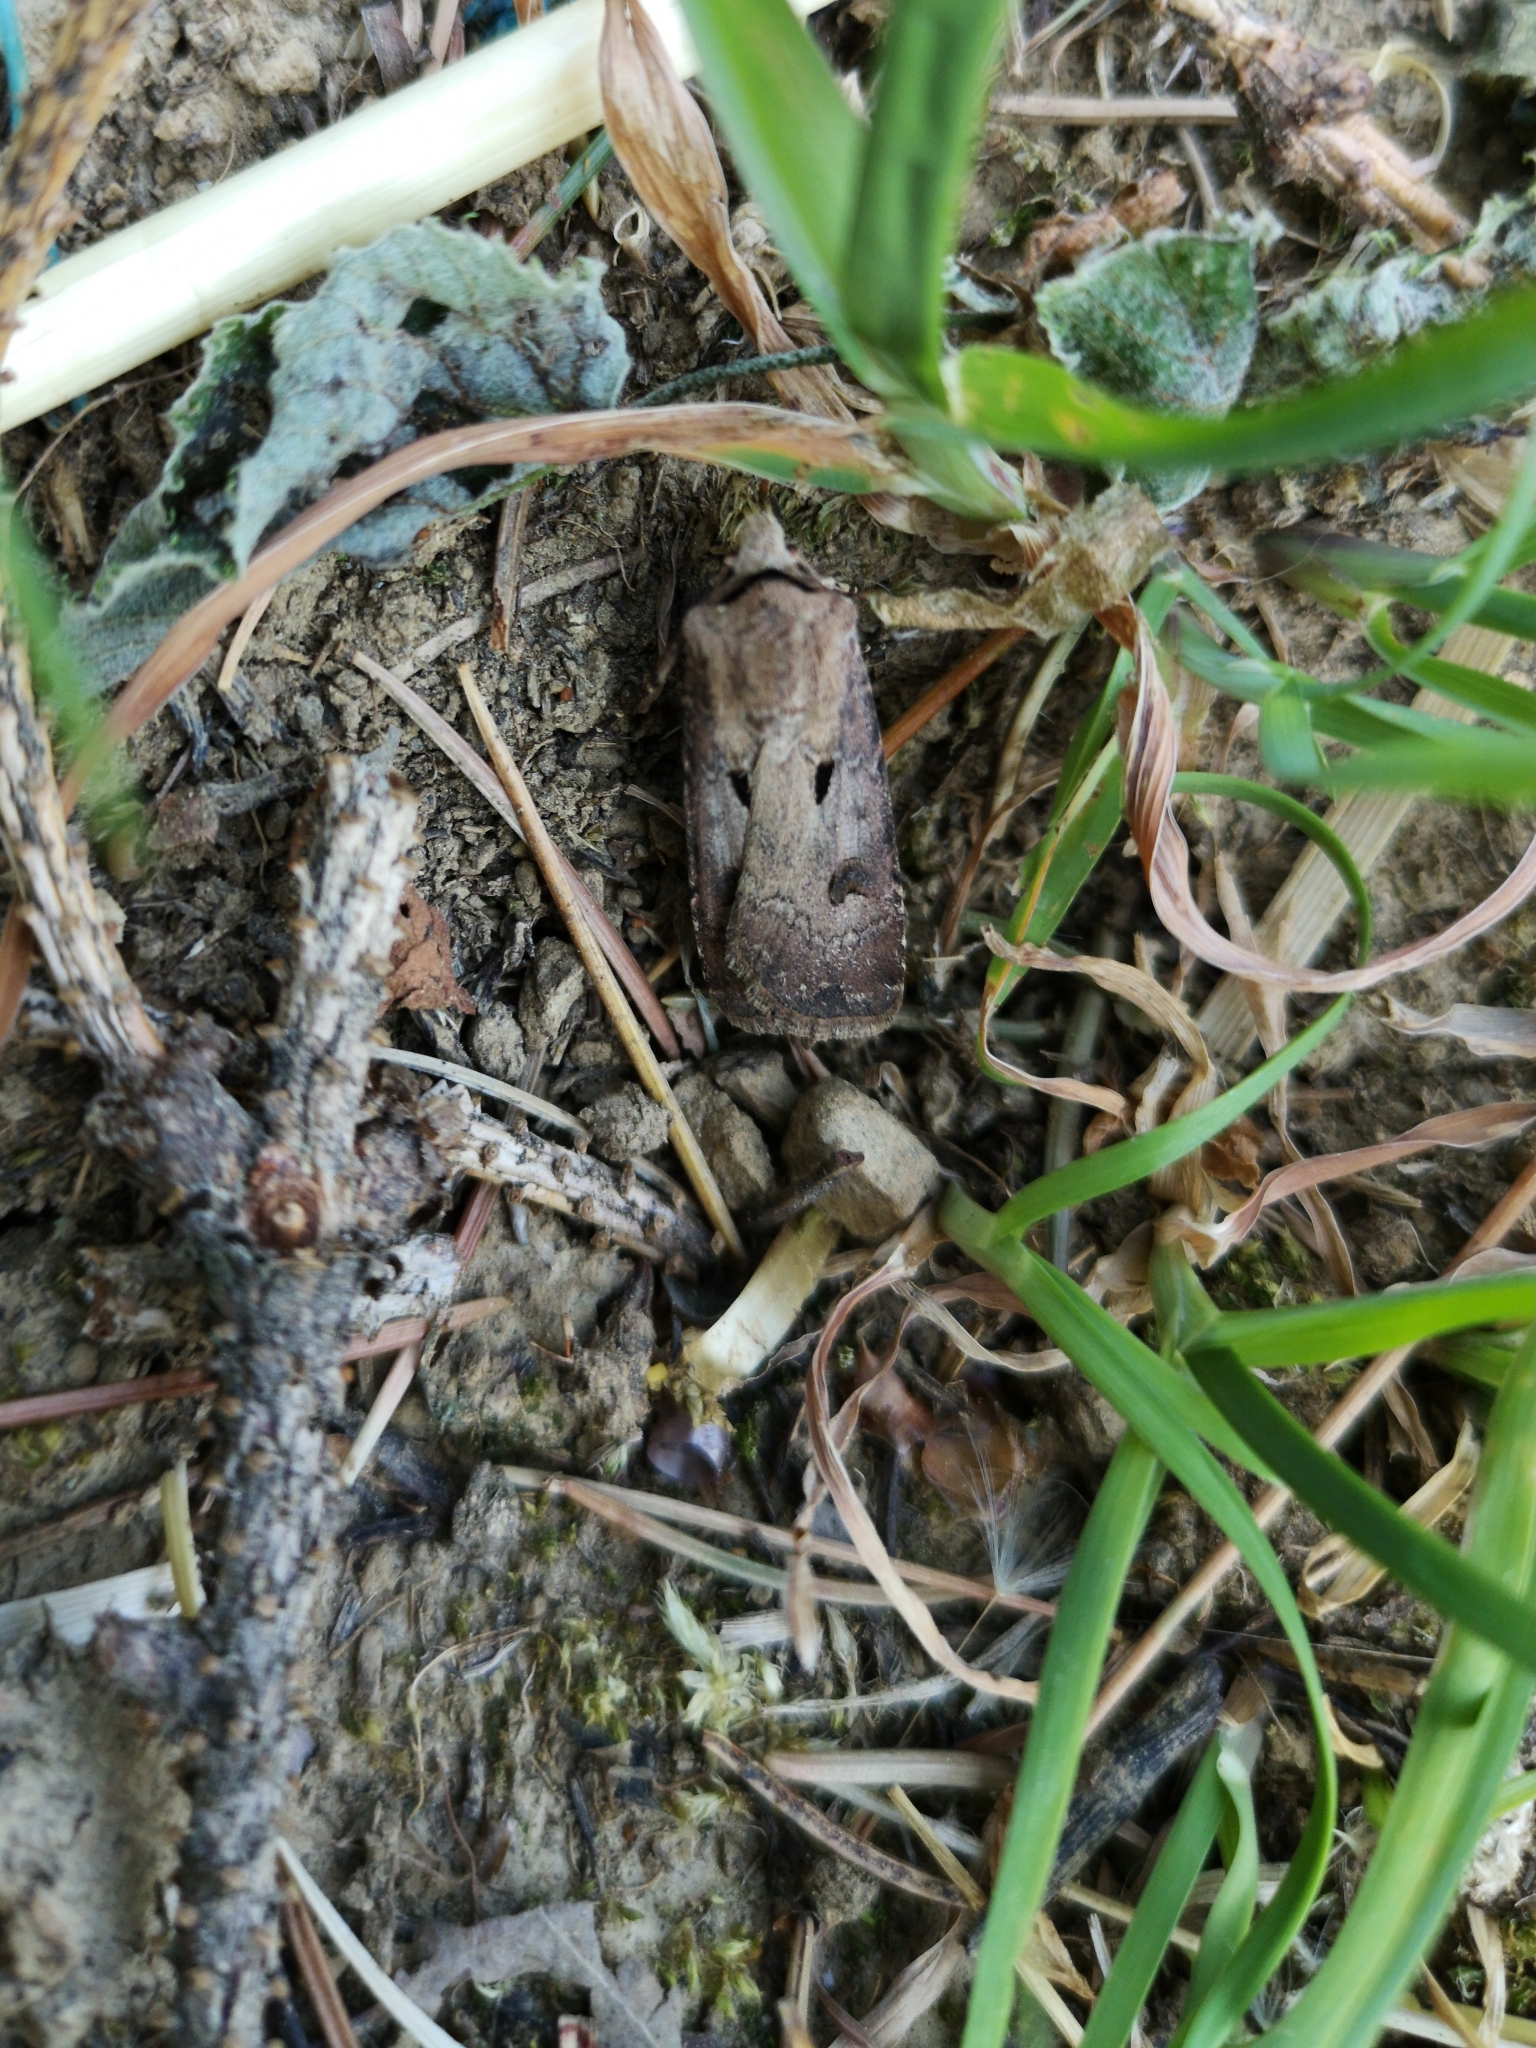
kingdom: Animalia
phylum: Arthropoda
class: Insecta
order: Lepidoptera
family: Noctuidae
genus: Agrotis
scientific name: Agrotis exclamationis
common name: Heart and dart
